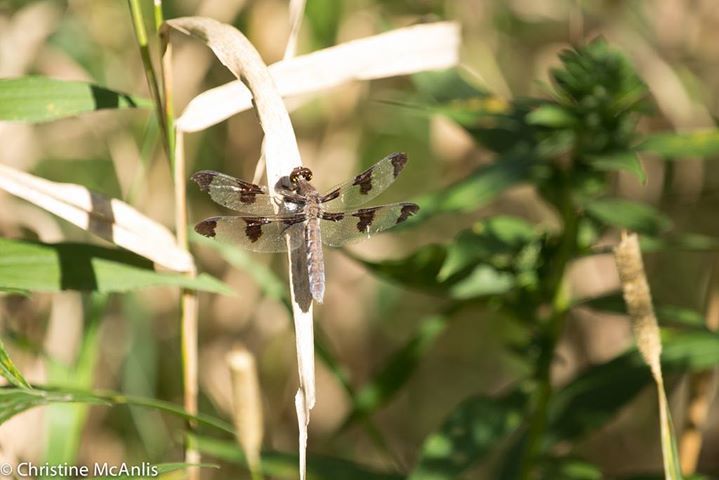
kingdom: Animalia
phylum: Arthropoda
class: Insecta
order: Odonata
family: Libellulidae
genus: Plathemis
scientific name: Plathemis lydia
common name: Common whitetail
